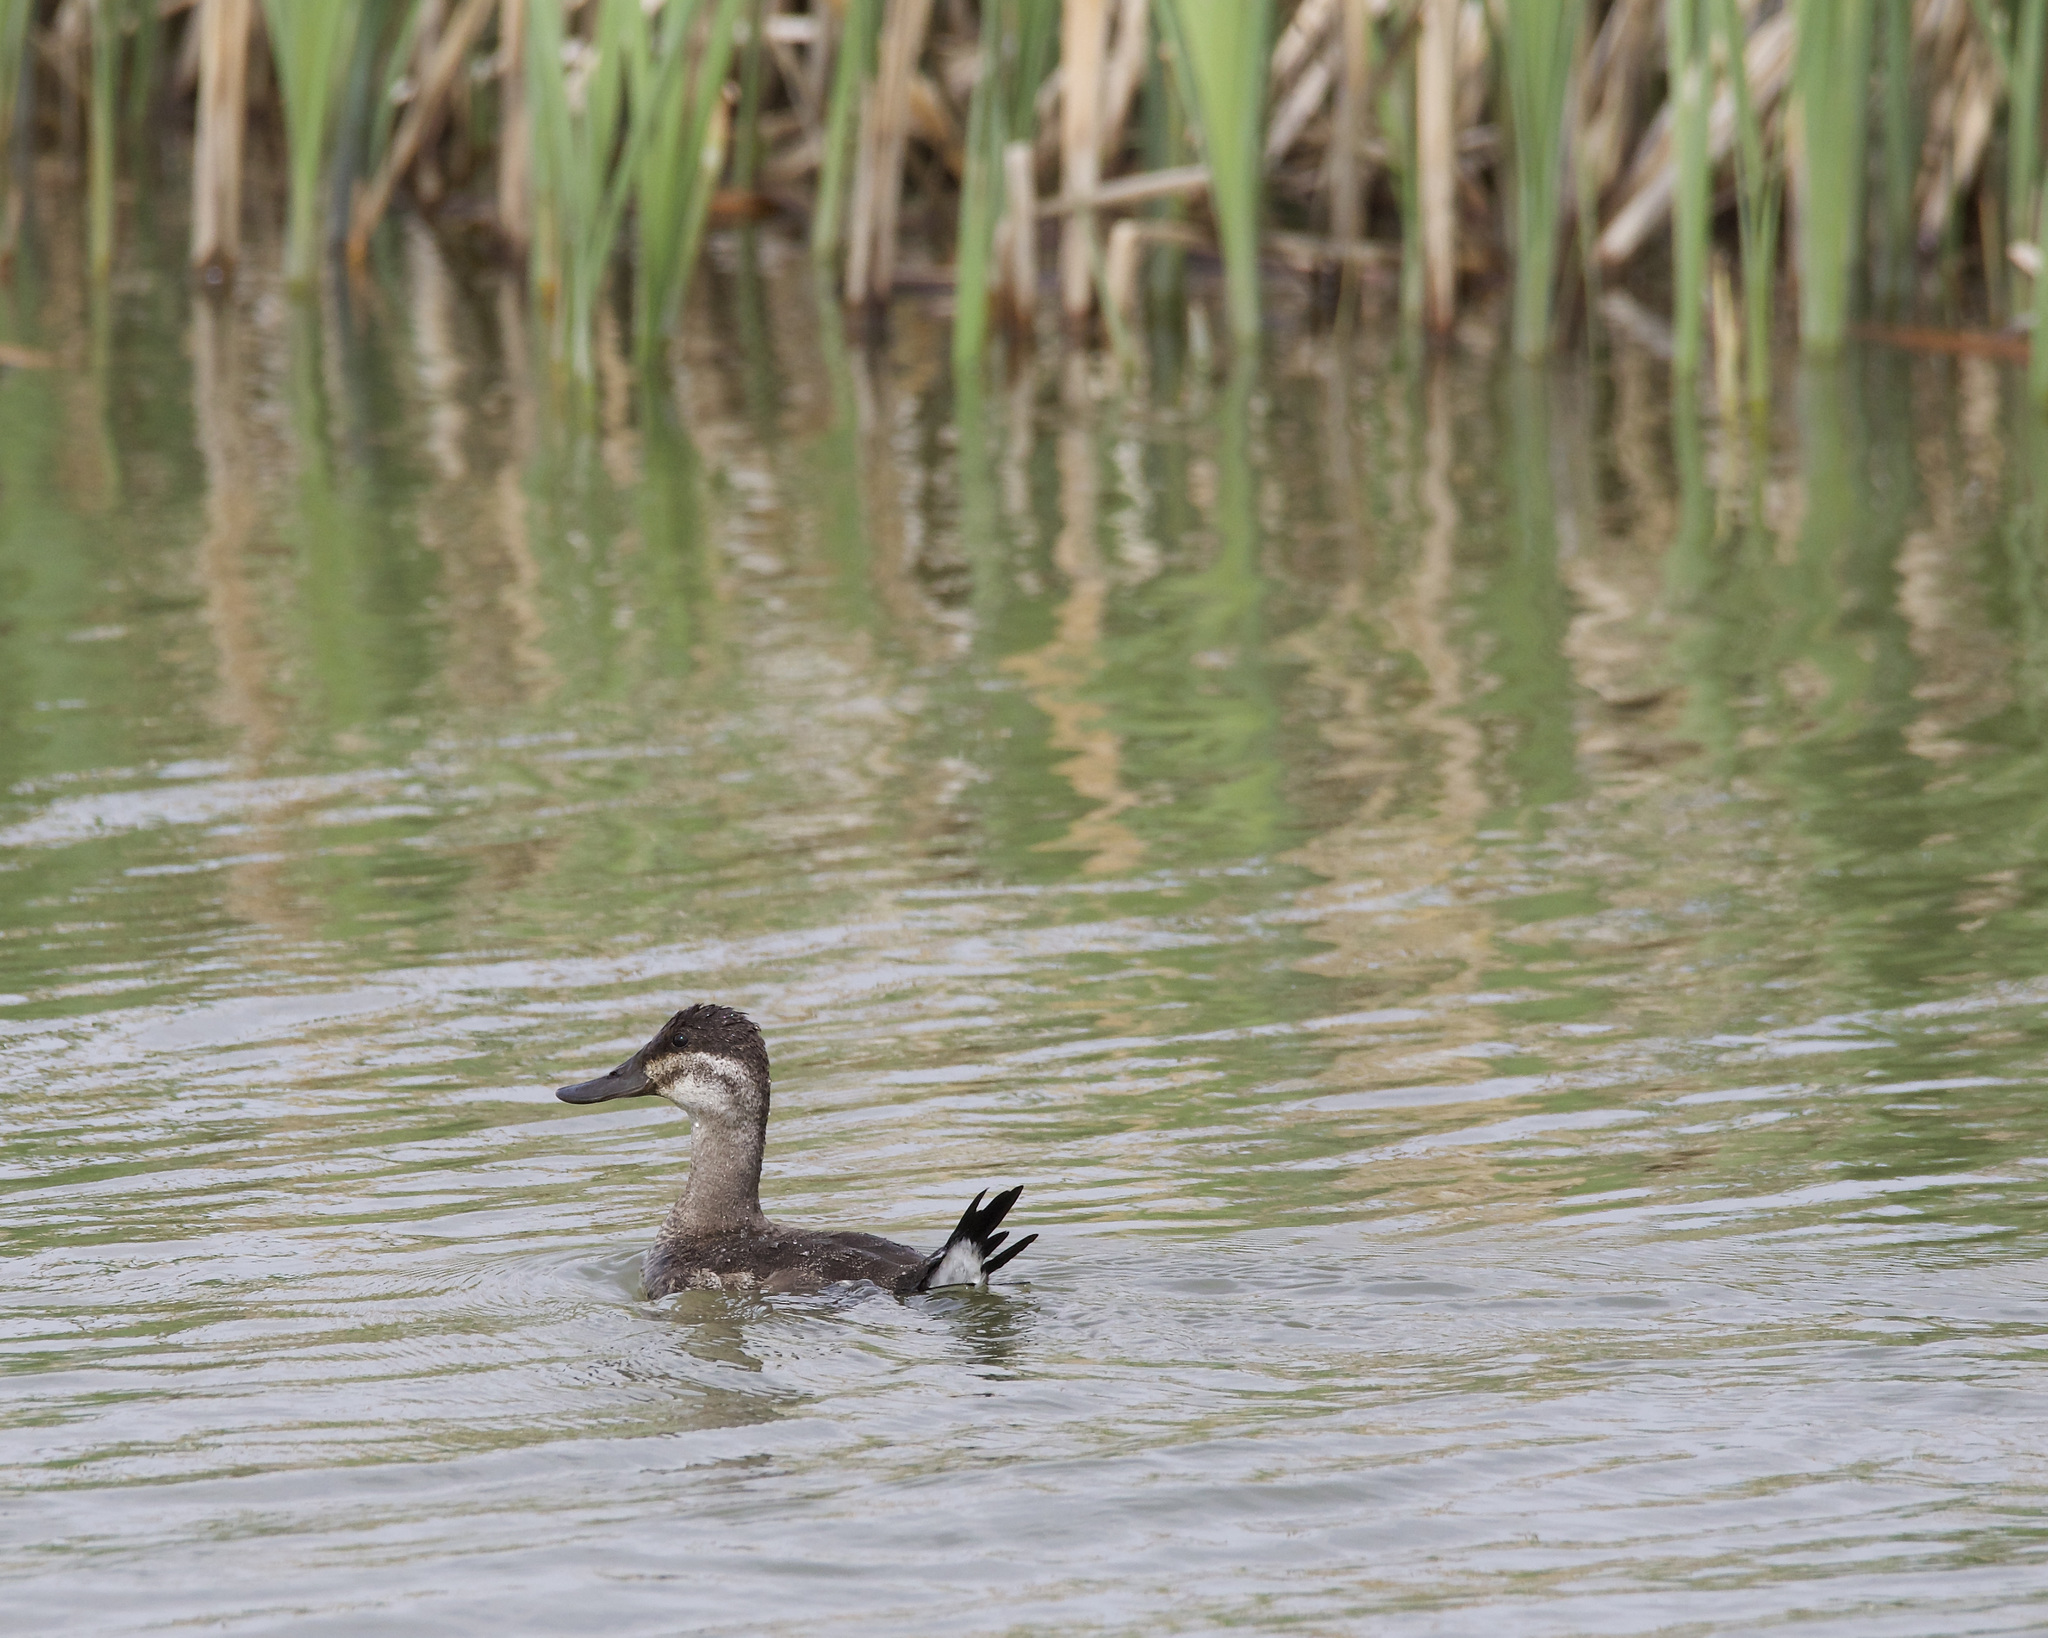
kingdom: Animalia
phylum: Chordata
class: Aves
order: Anseriformes
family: Anatidae
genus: Oxyura
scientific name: Oxyura jamaicensis
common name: Ruddy duck
